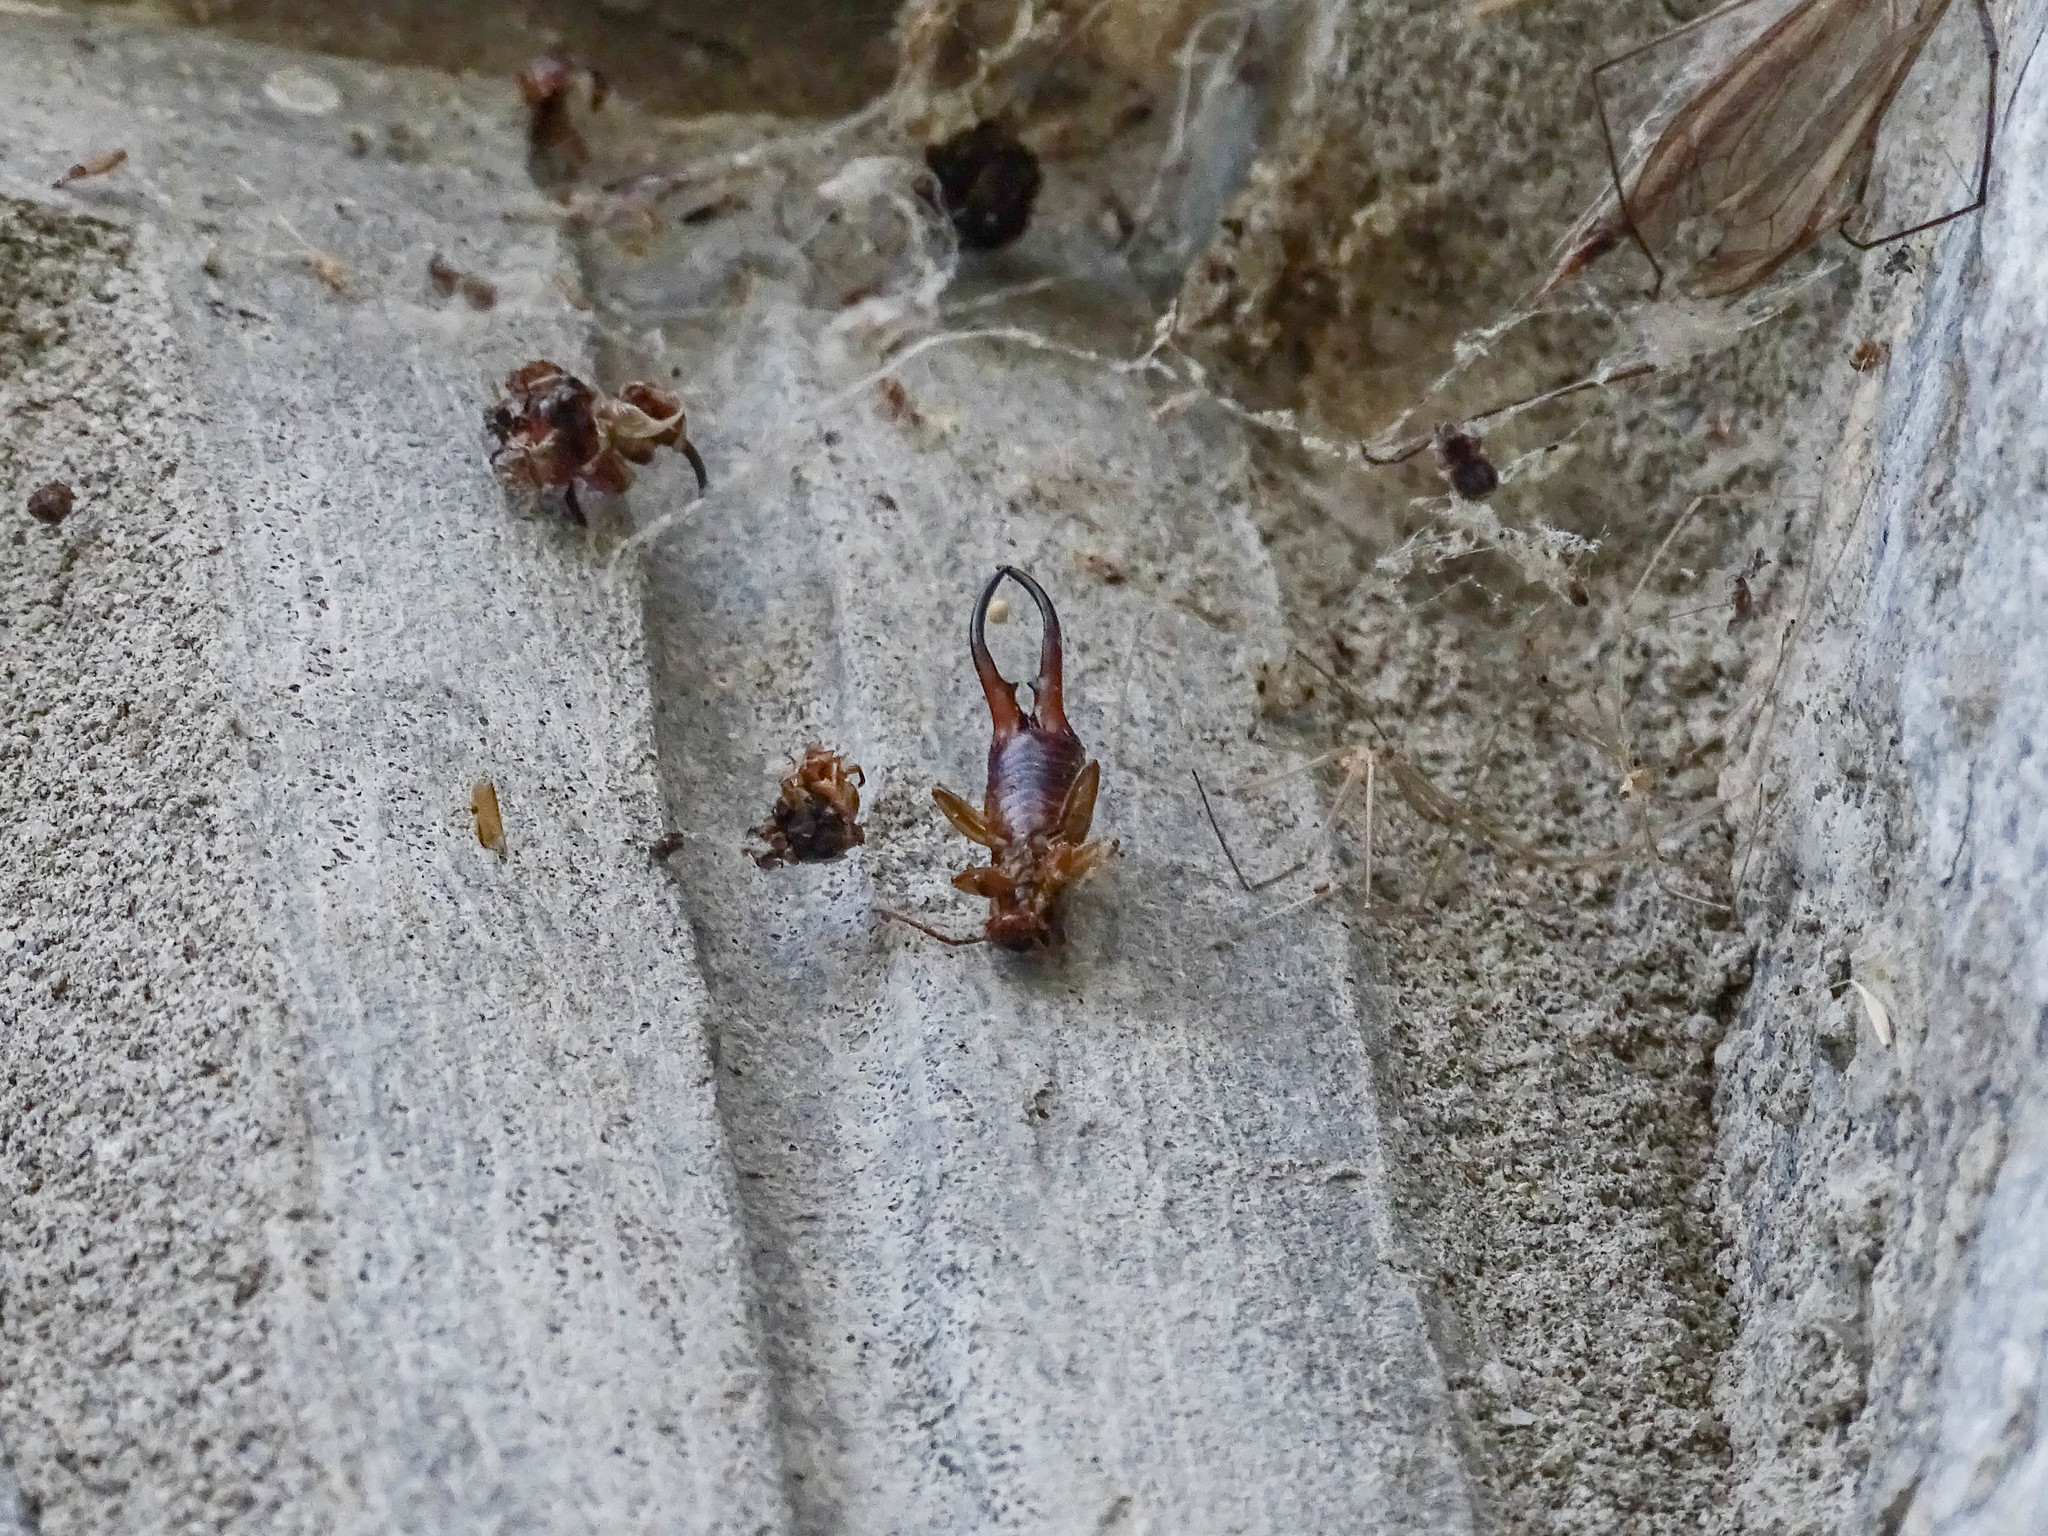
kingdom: Animalia
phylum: Arthropoda
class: Insecta
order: Dermaptera
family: Forficulidae
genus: Forficula
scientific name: Forficula
